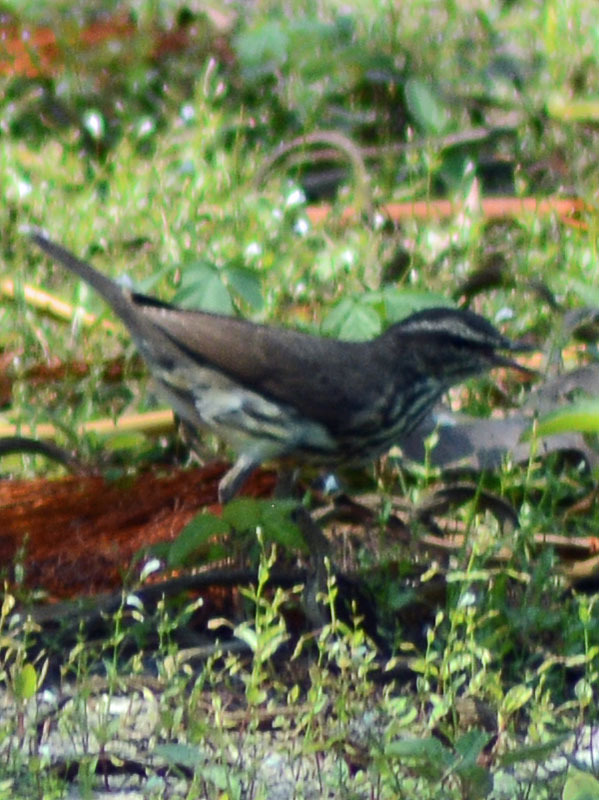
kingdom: Animalia
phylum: Chordata
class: Aves
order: Passeriformes
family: Parulidae
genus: Parkesia
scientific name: Parkesia noveboracensis
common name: Northern waterthrush
